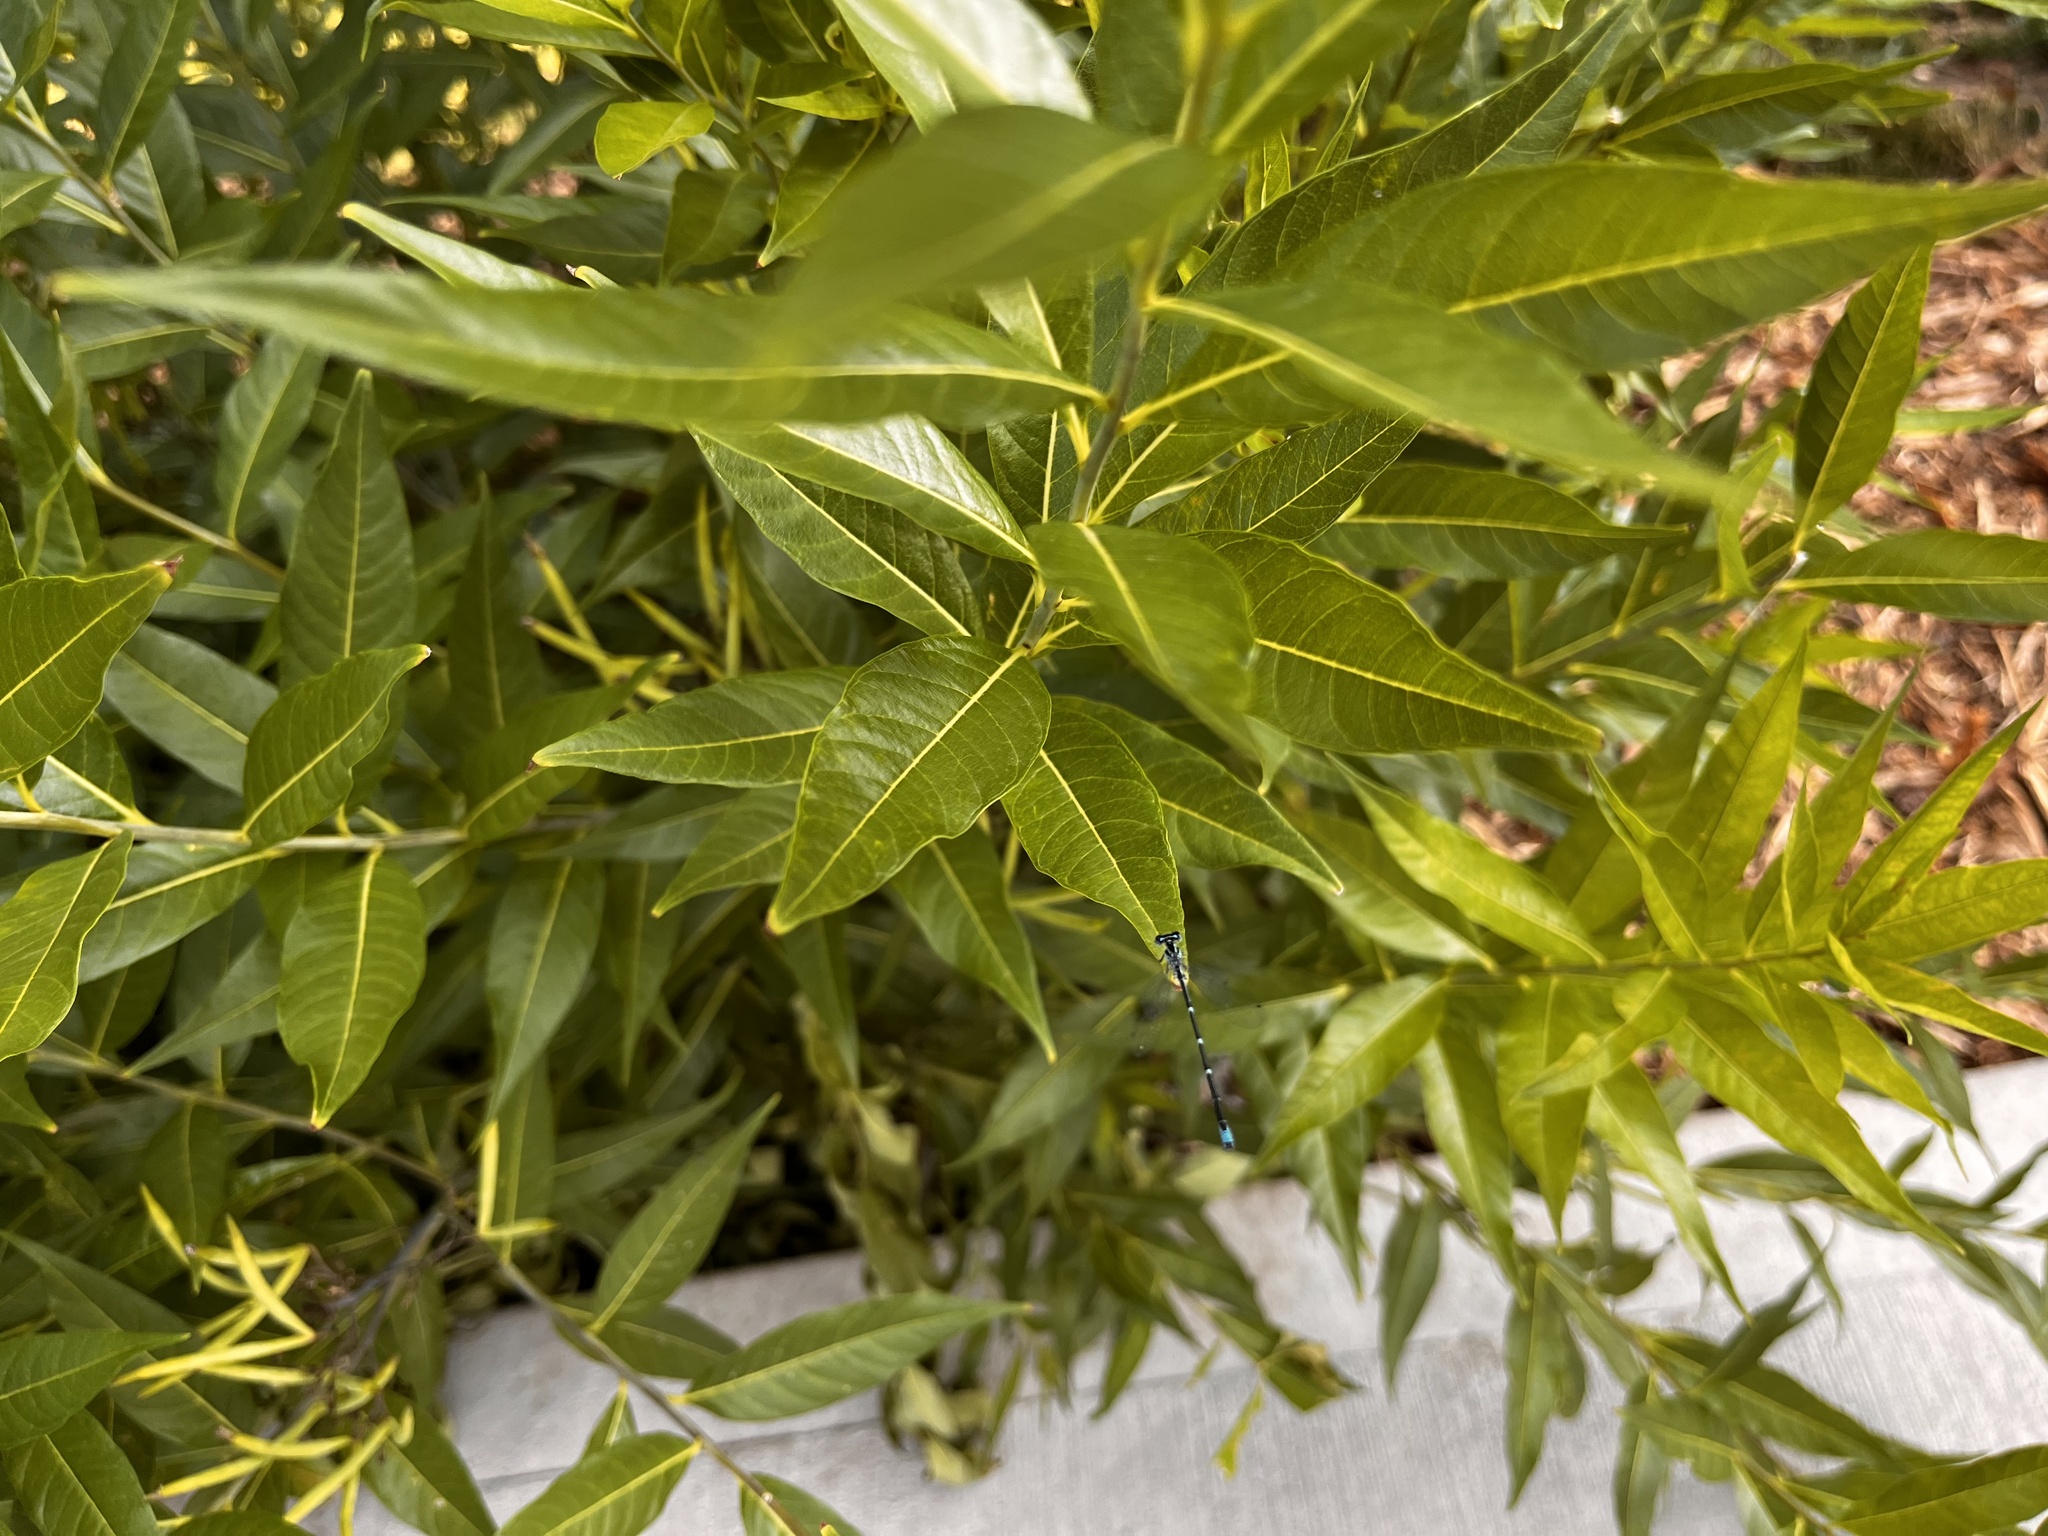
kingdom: Animalia
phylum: Arthropoda
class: Insecta
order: Odonata
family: Coenagrionidae
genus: Enallagma
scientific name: Enallagma exsulans
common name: Stream bluet
